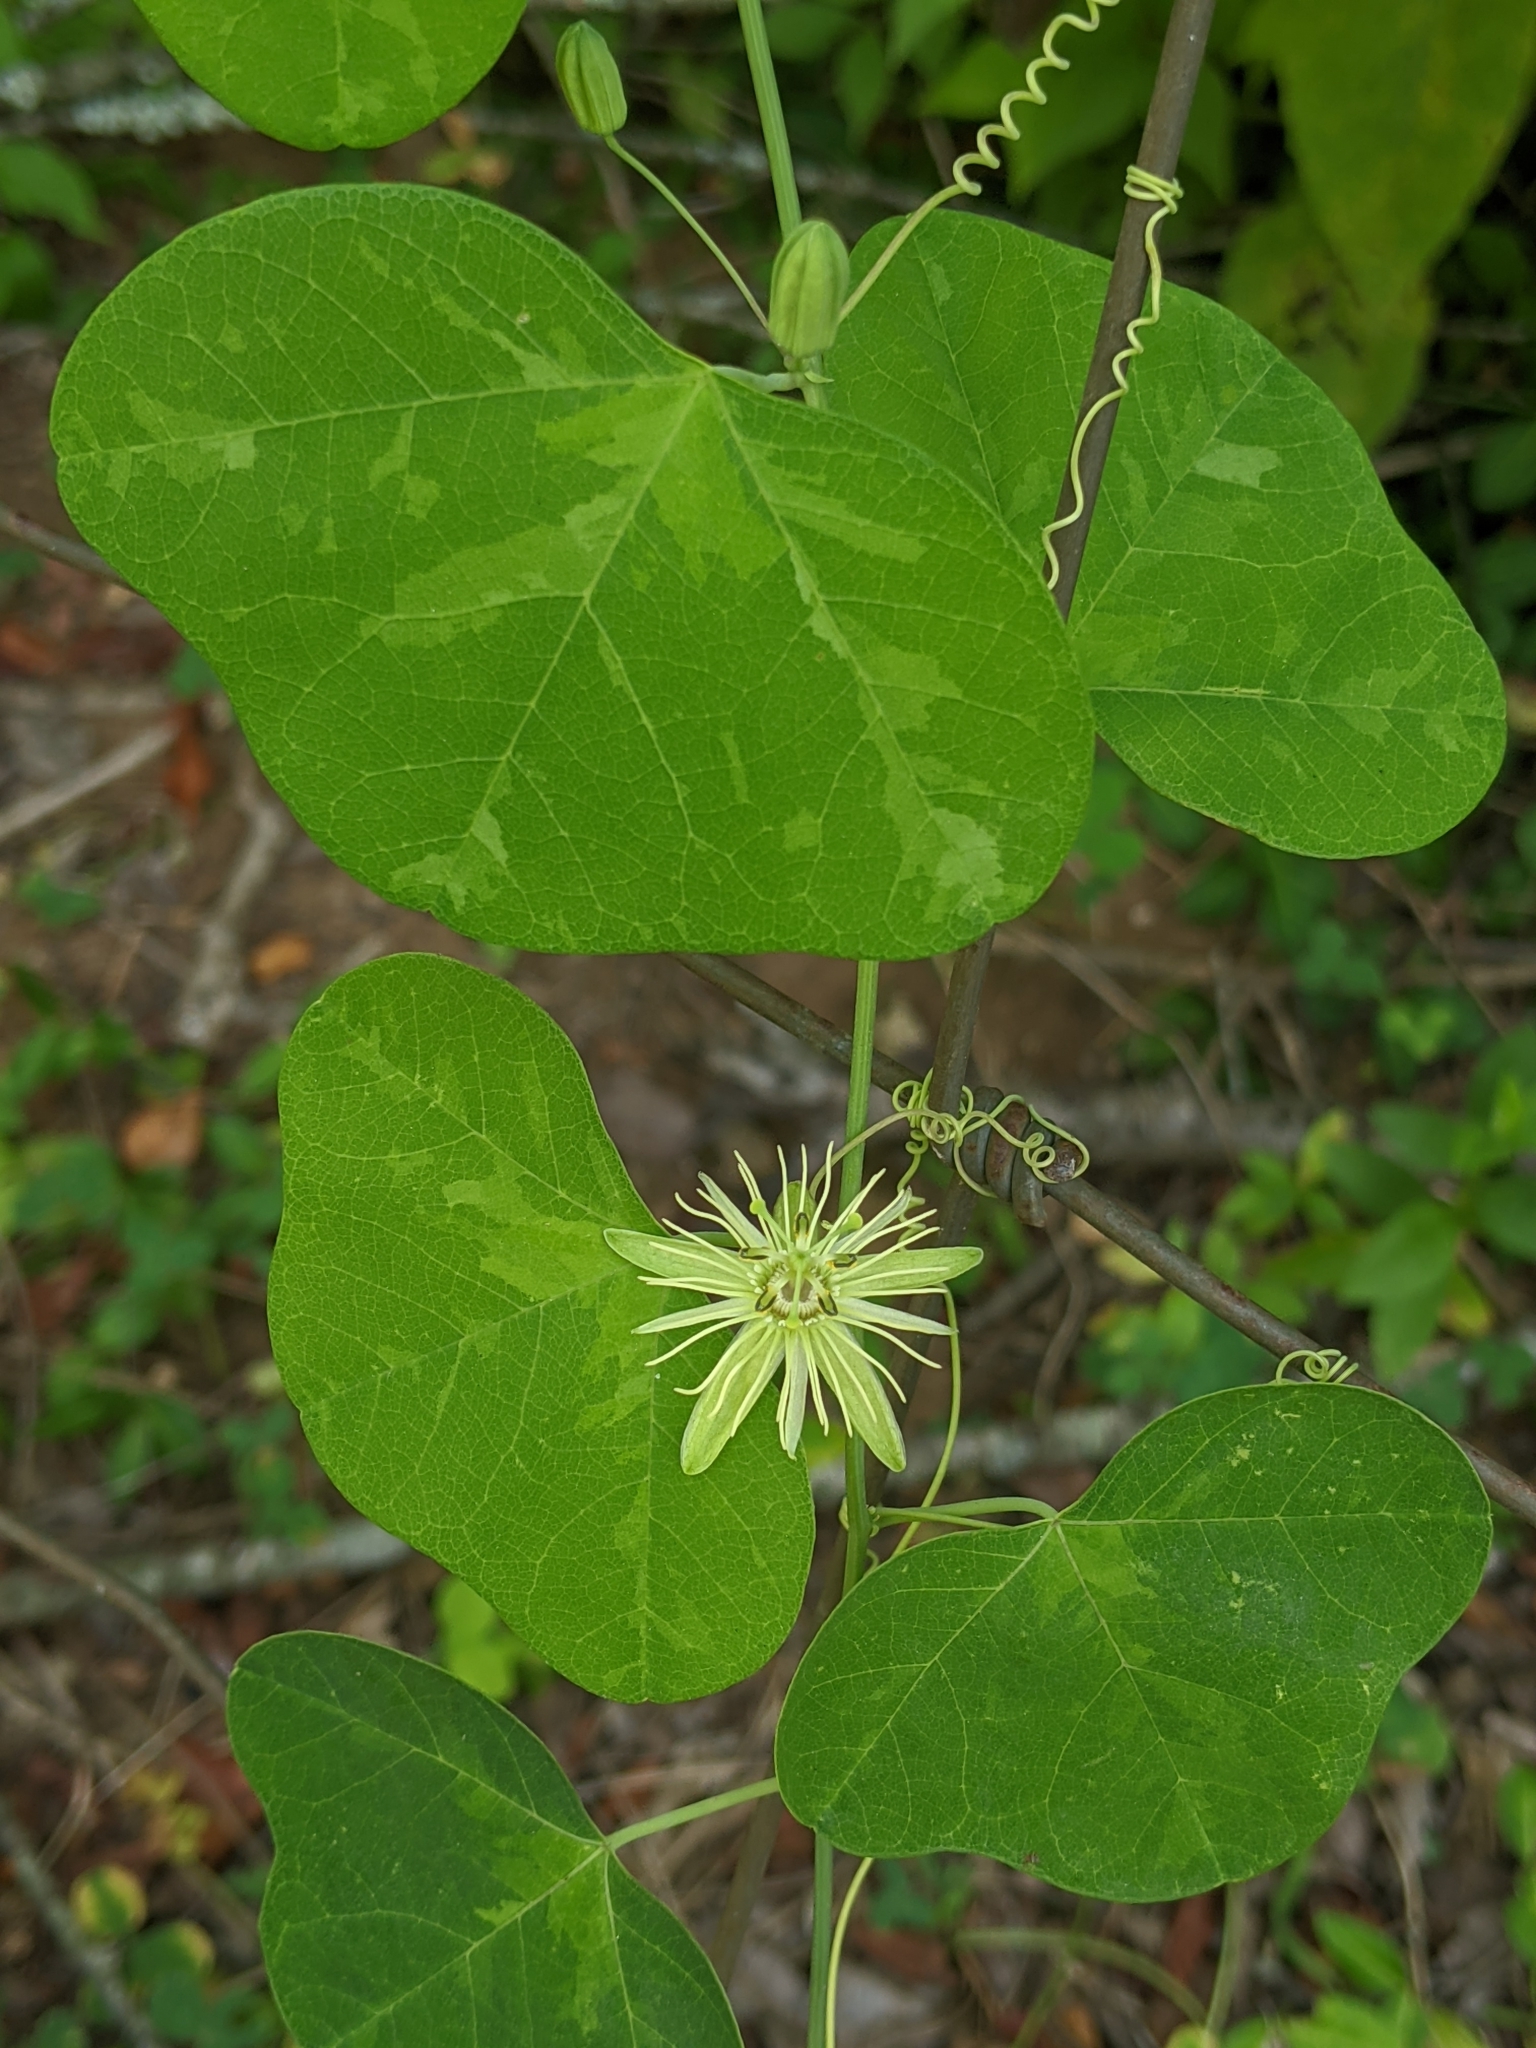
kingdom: Plantae
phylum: Tracheophyta
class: Magnoliopsida
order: Malpighiales
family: Passifloraceae
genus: Passiflora
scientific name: Passiflora lutea
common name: Yellow passionflower
